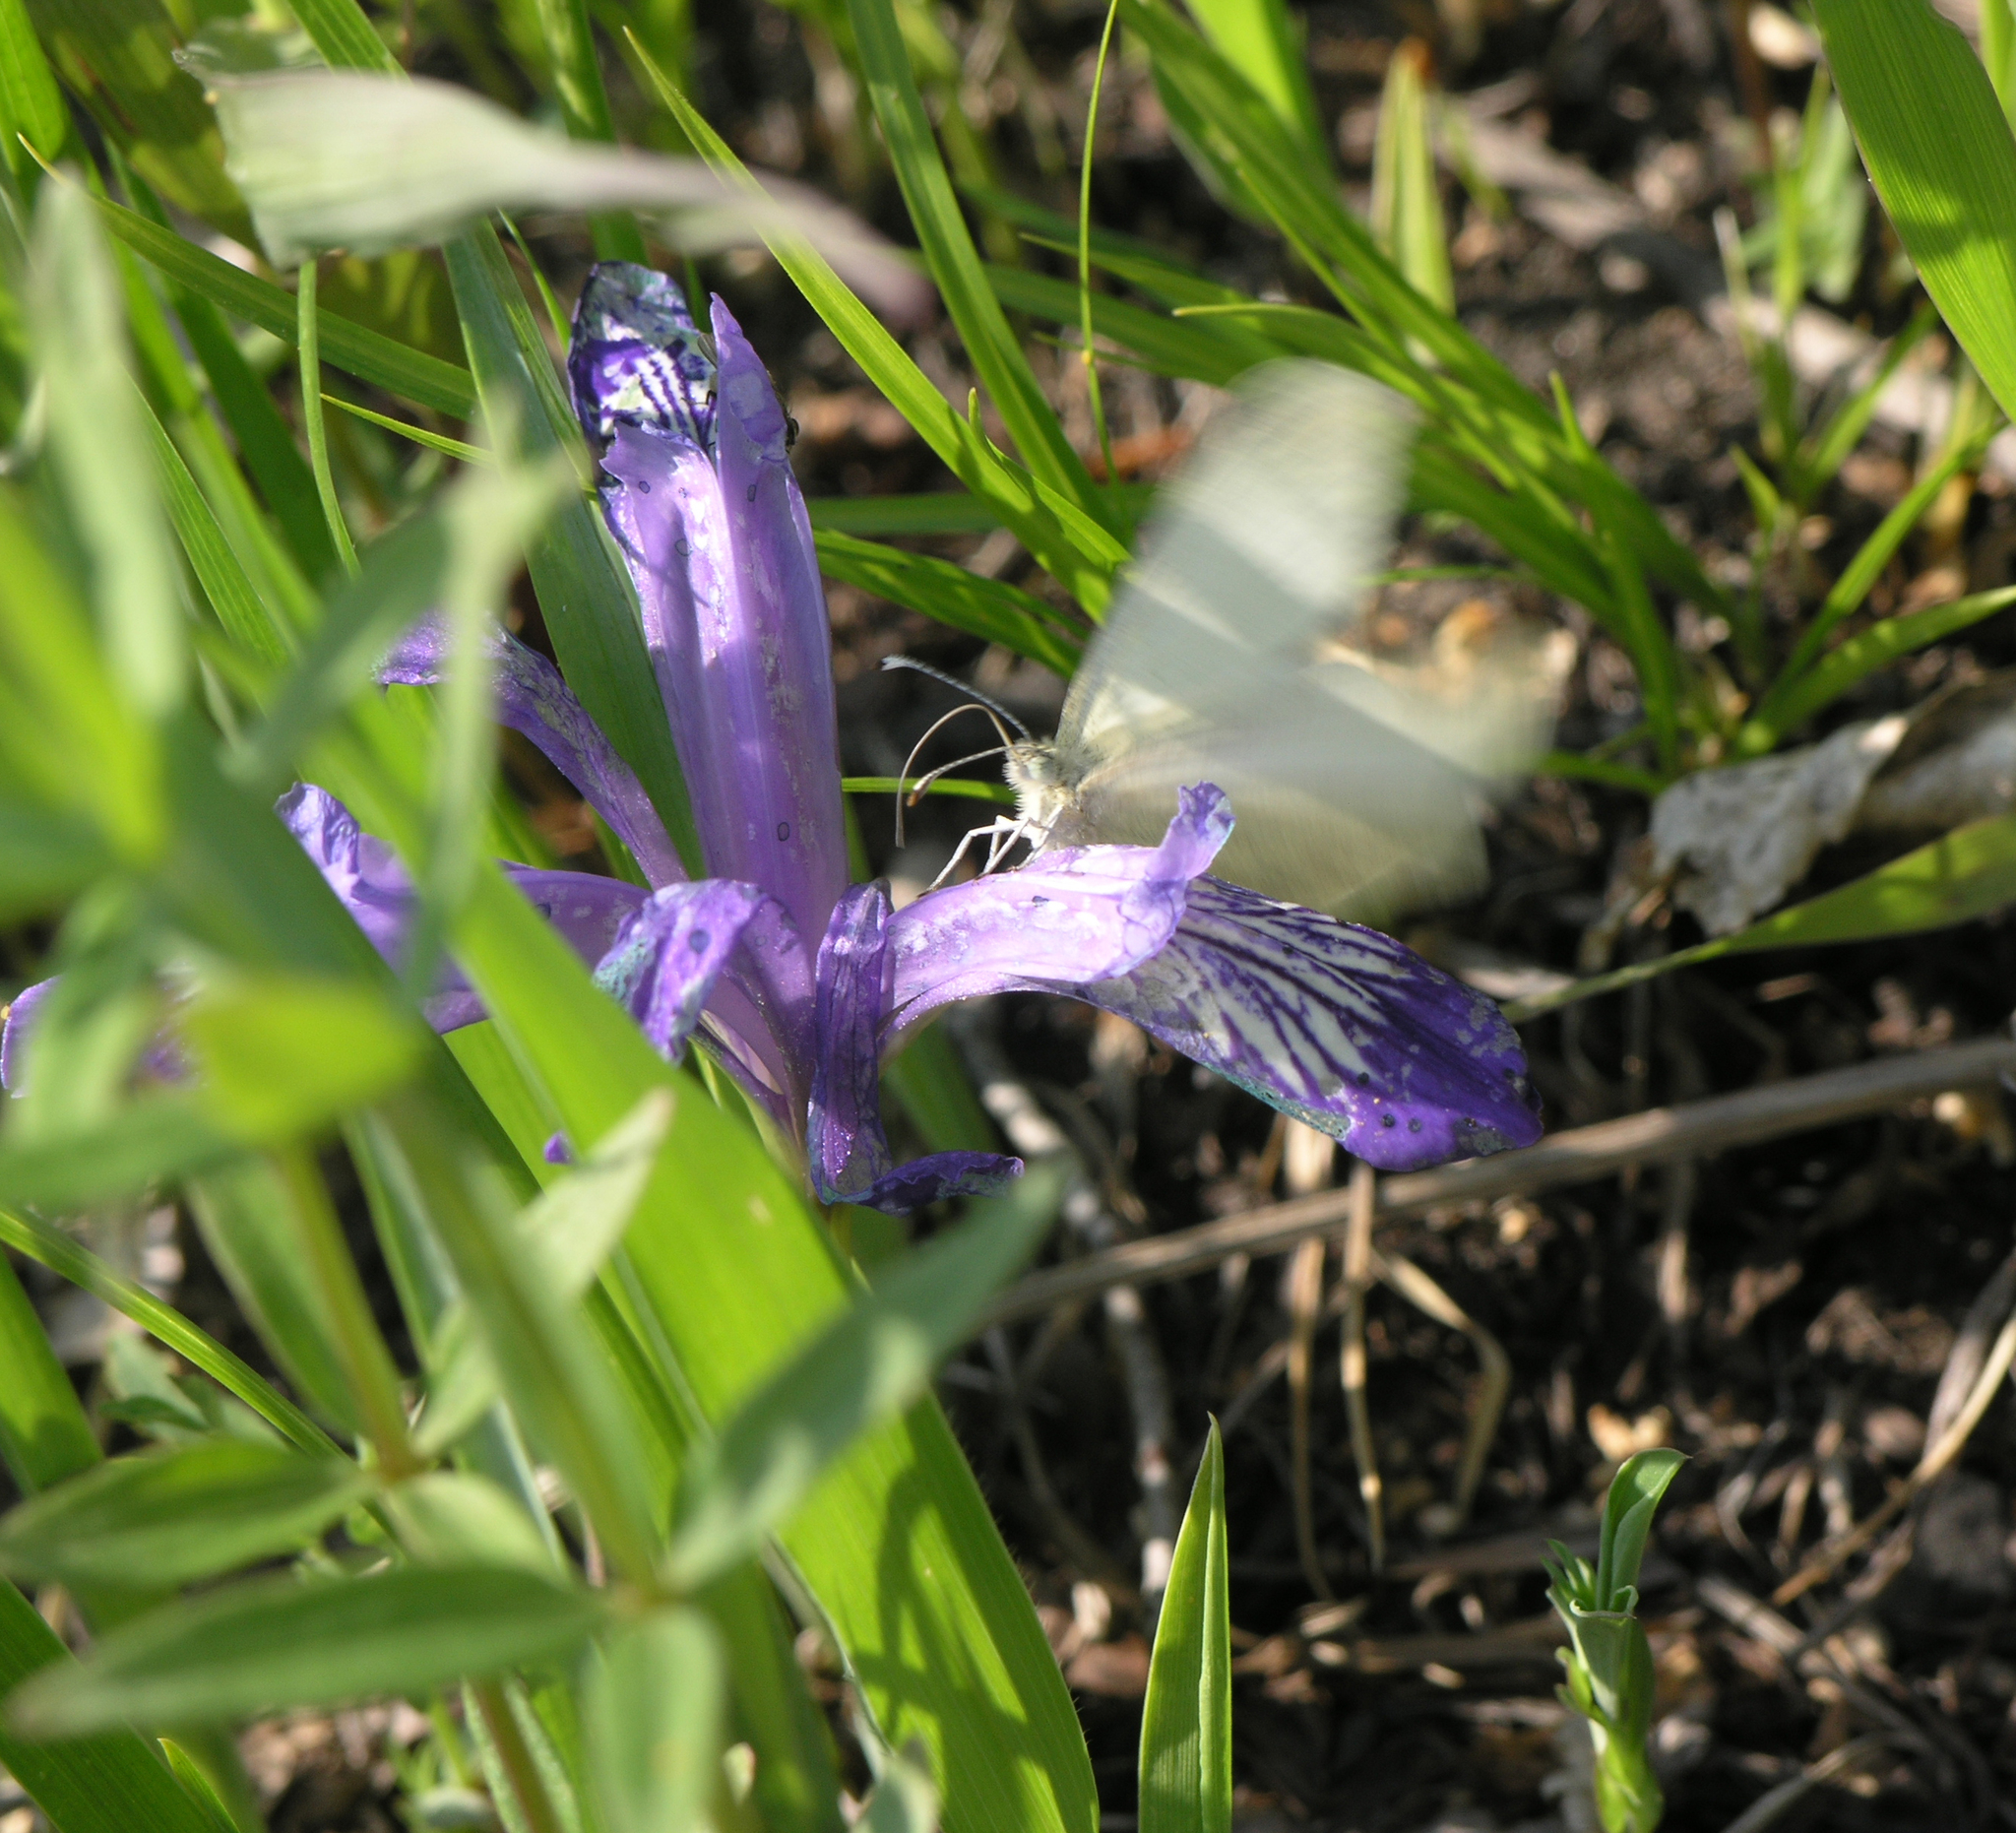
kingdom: Plantae
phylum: Tracheophyta
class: Liliopsida
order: Asparagales
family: Iridaceae
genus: Iris
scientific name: Iris ruthenica
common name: Purple-bract iris
